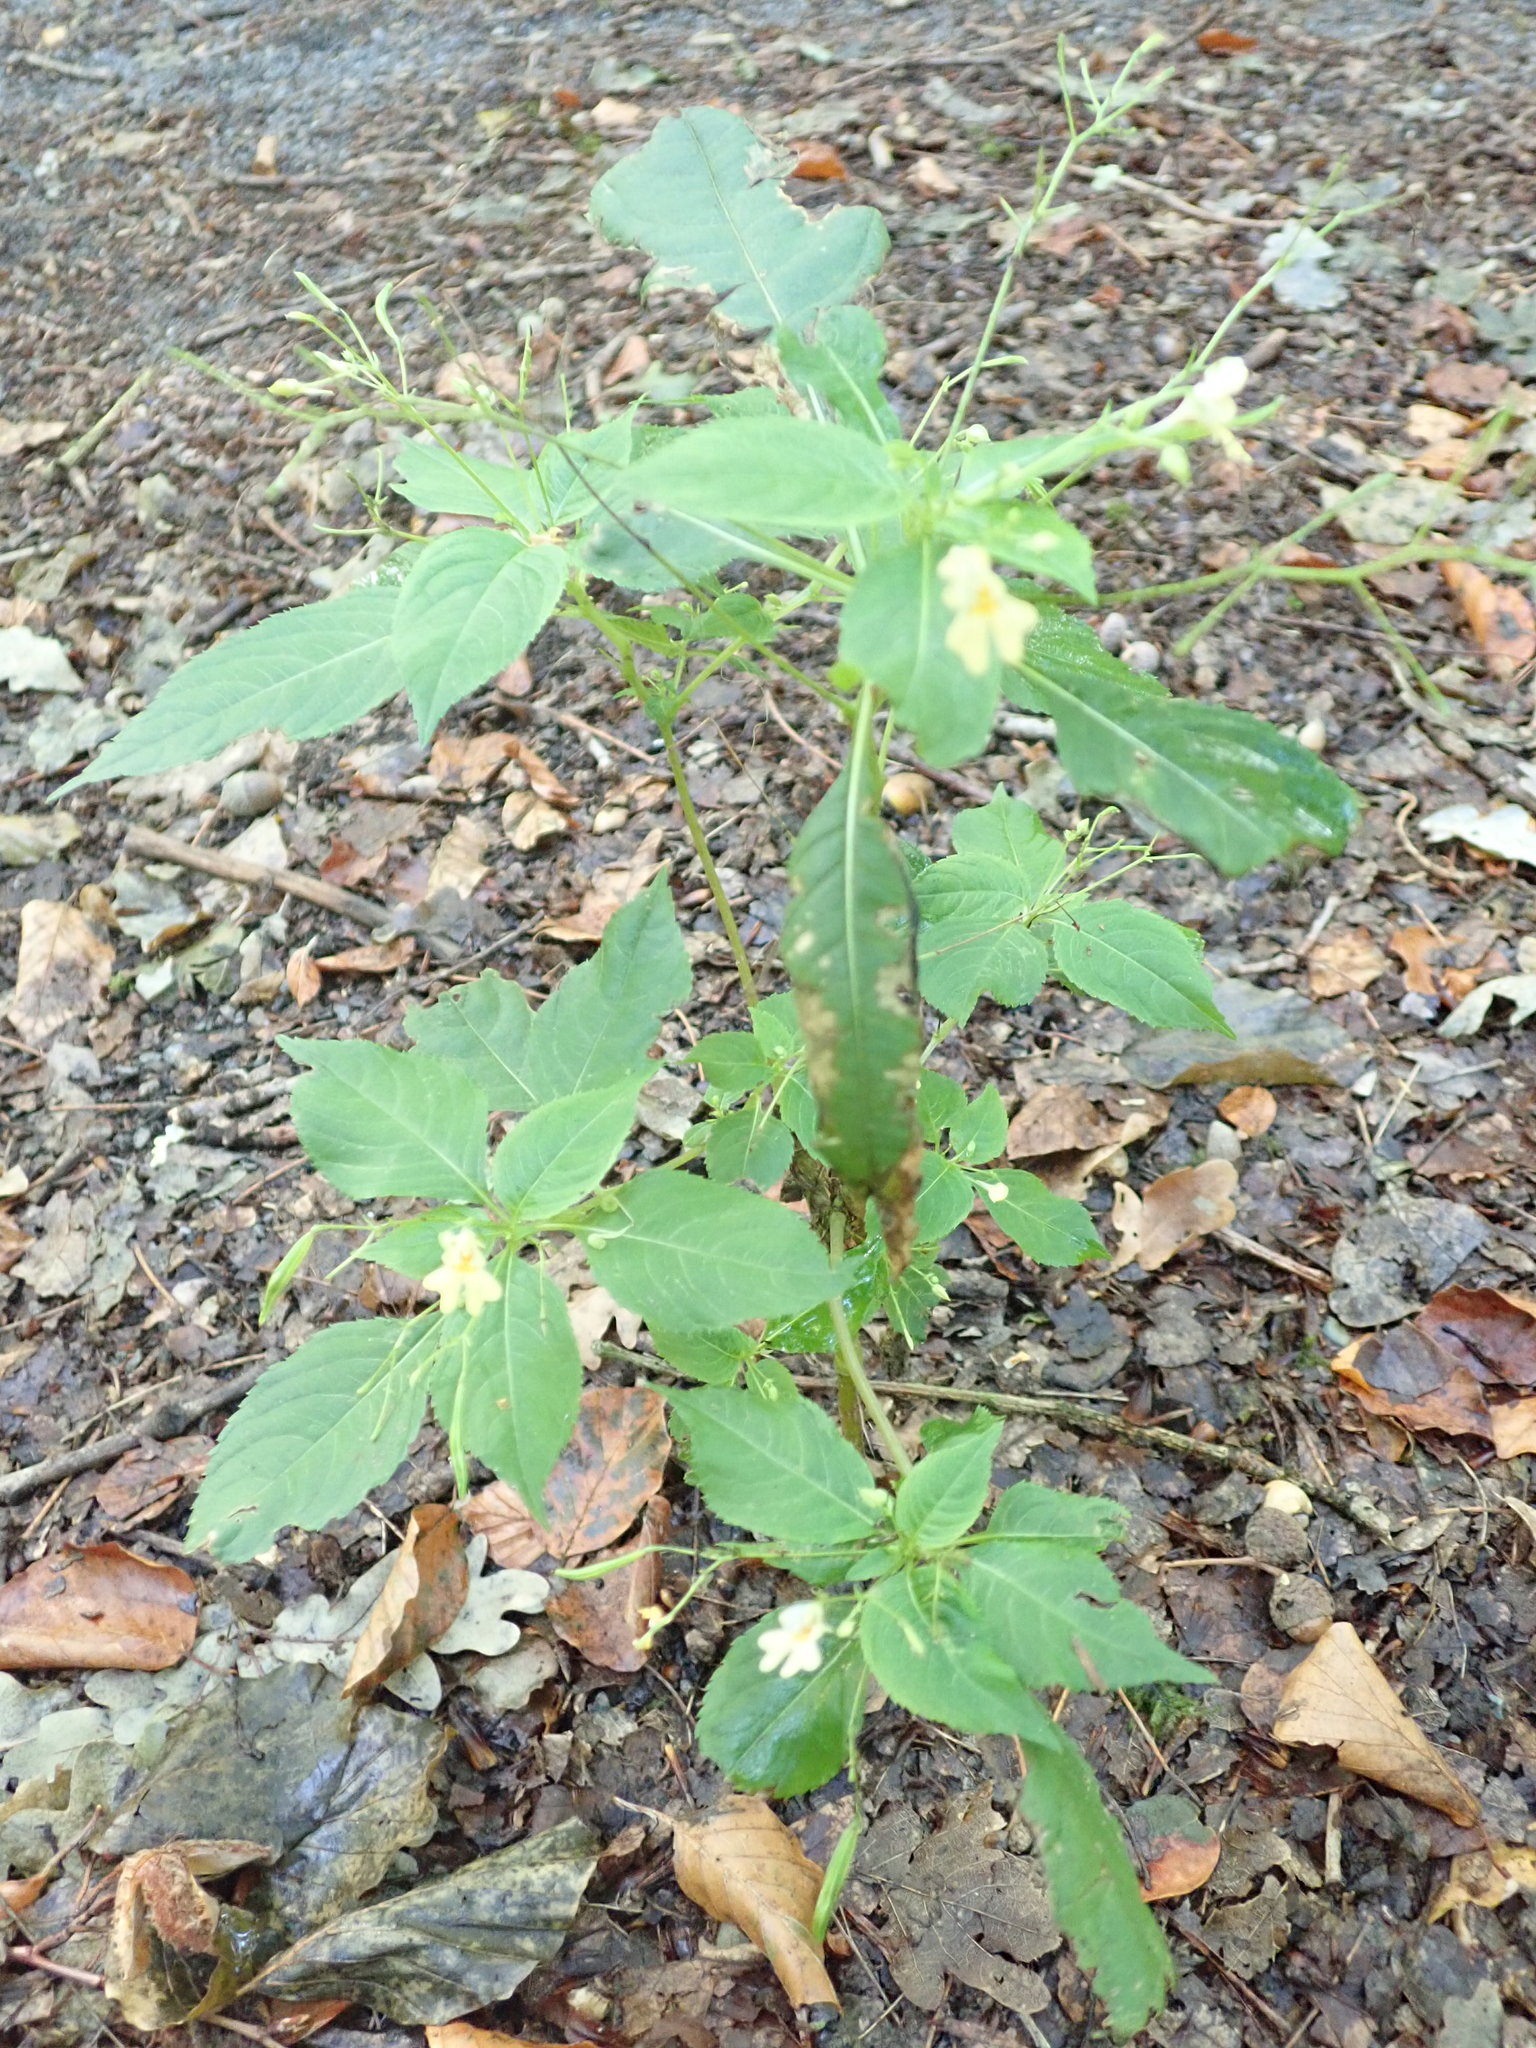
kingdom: Plantae
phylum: Tracheophyta
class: Magnoliopsida
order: Ericales
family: Balsaminaceae
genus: Impatiens
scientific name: Impatiens parviflora
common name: Small balsam
